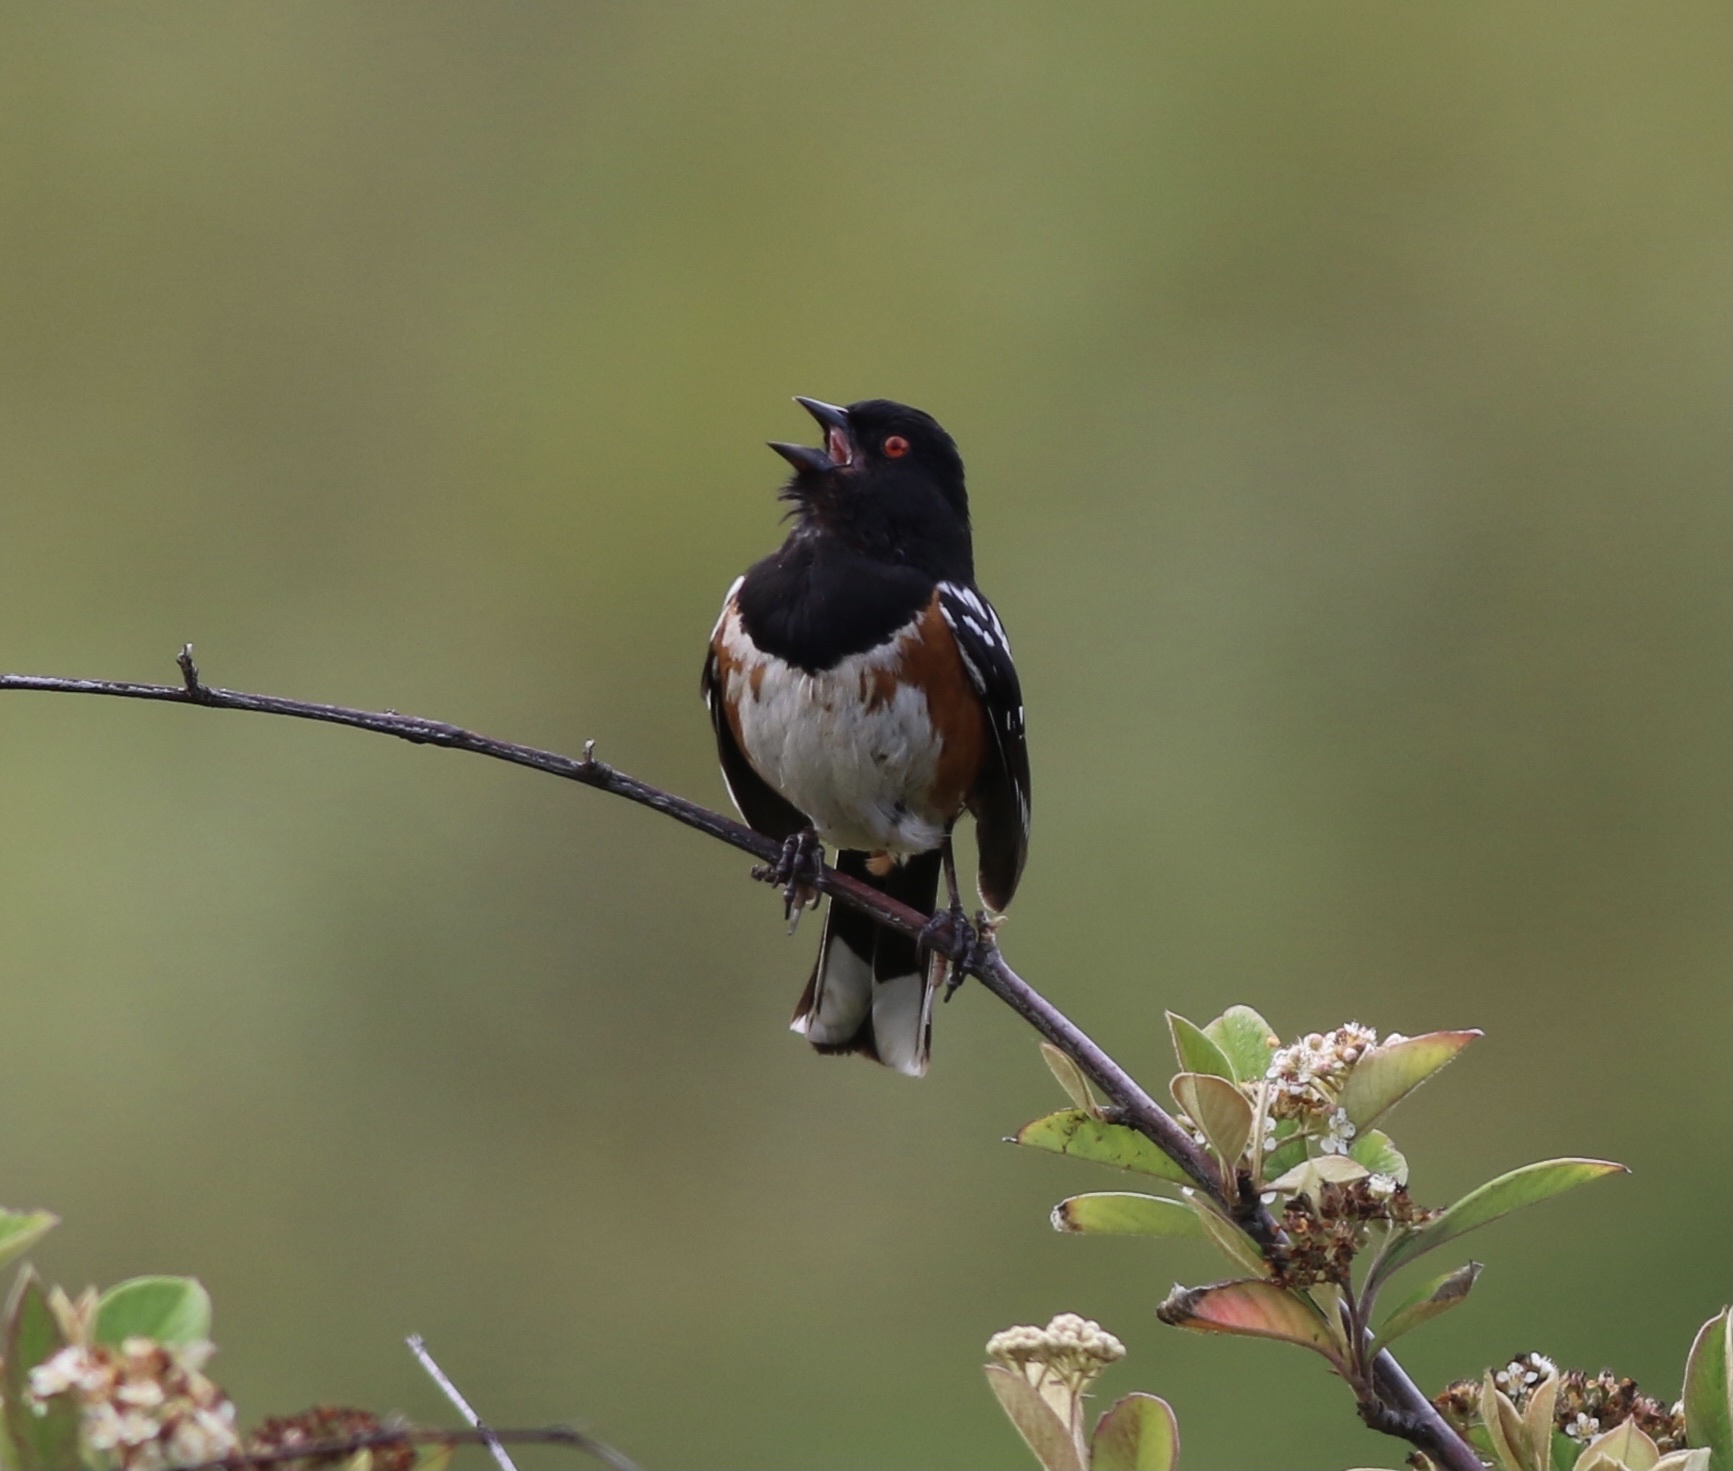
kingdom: Animalia
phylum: Chordata
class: Aves
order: Passeriformes
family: Passerellidae
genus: Pipilo
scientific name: Pipilo maculatus
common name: Spotted towhee
